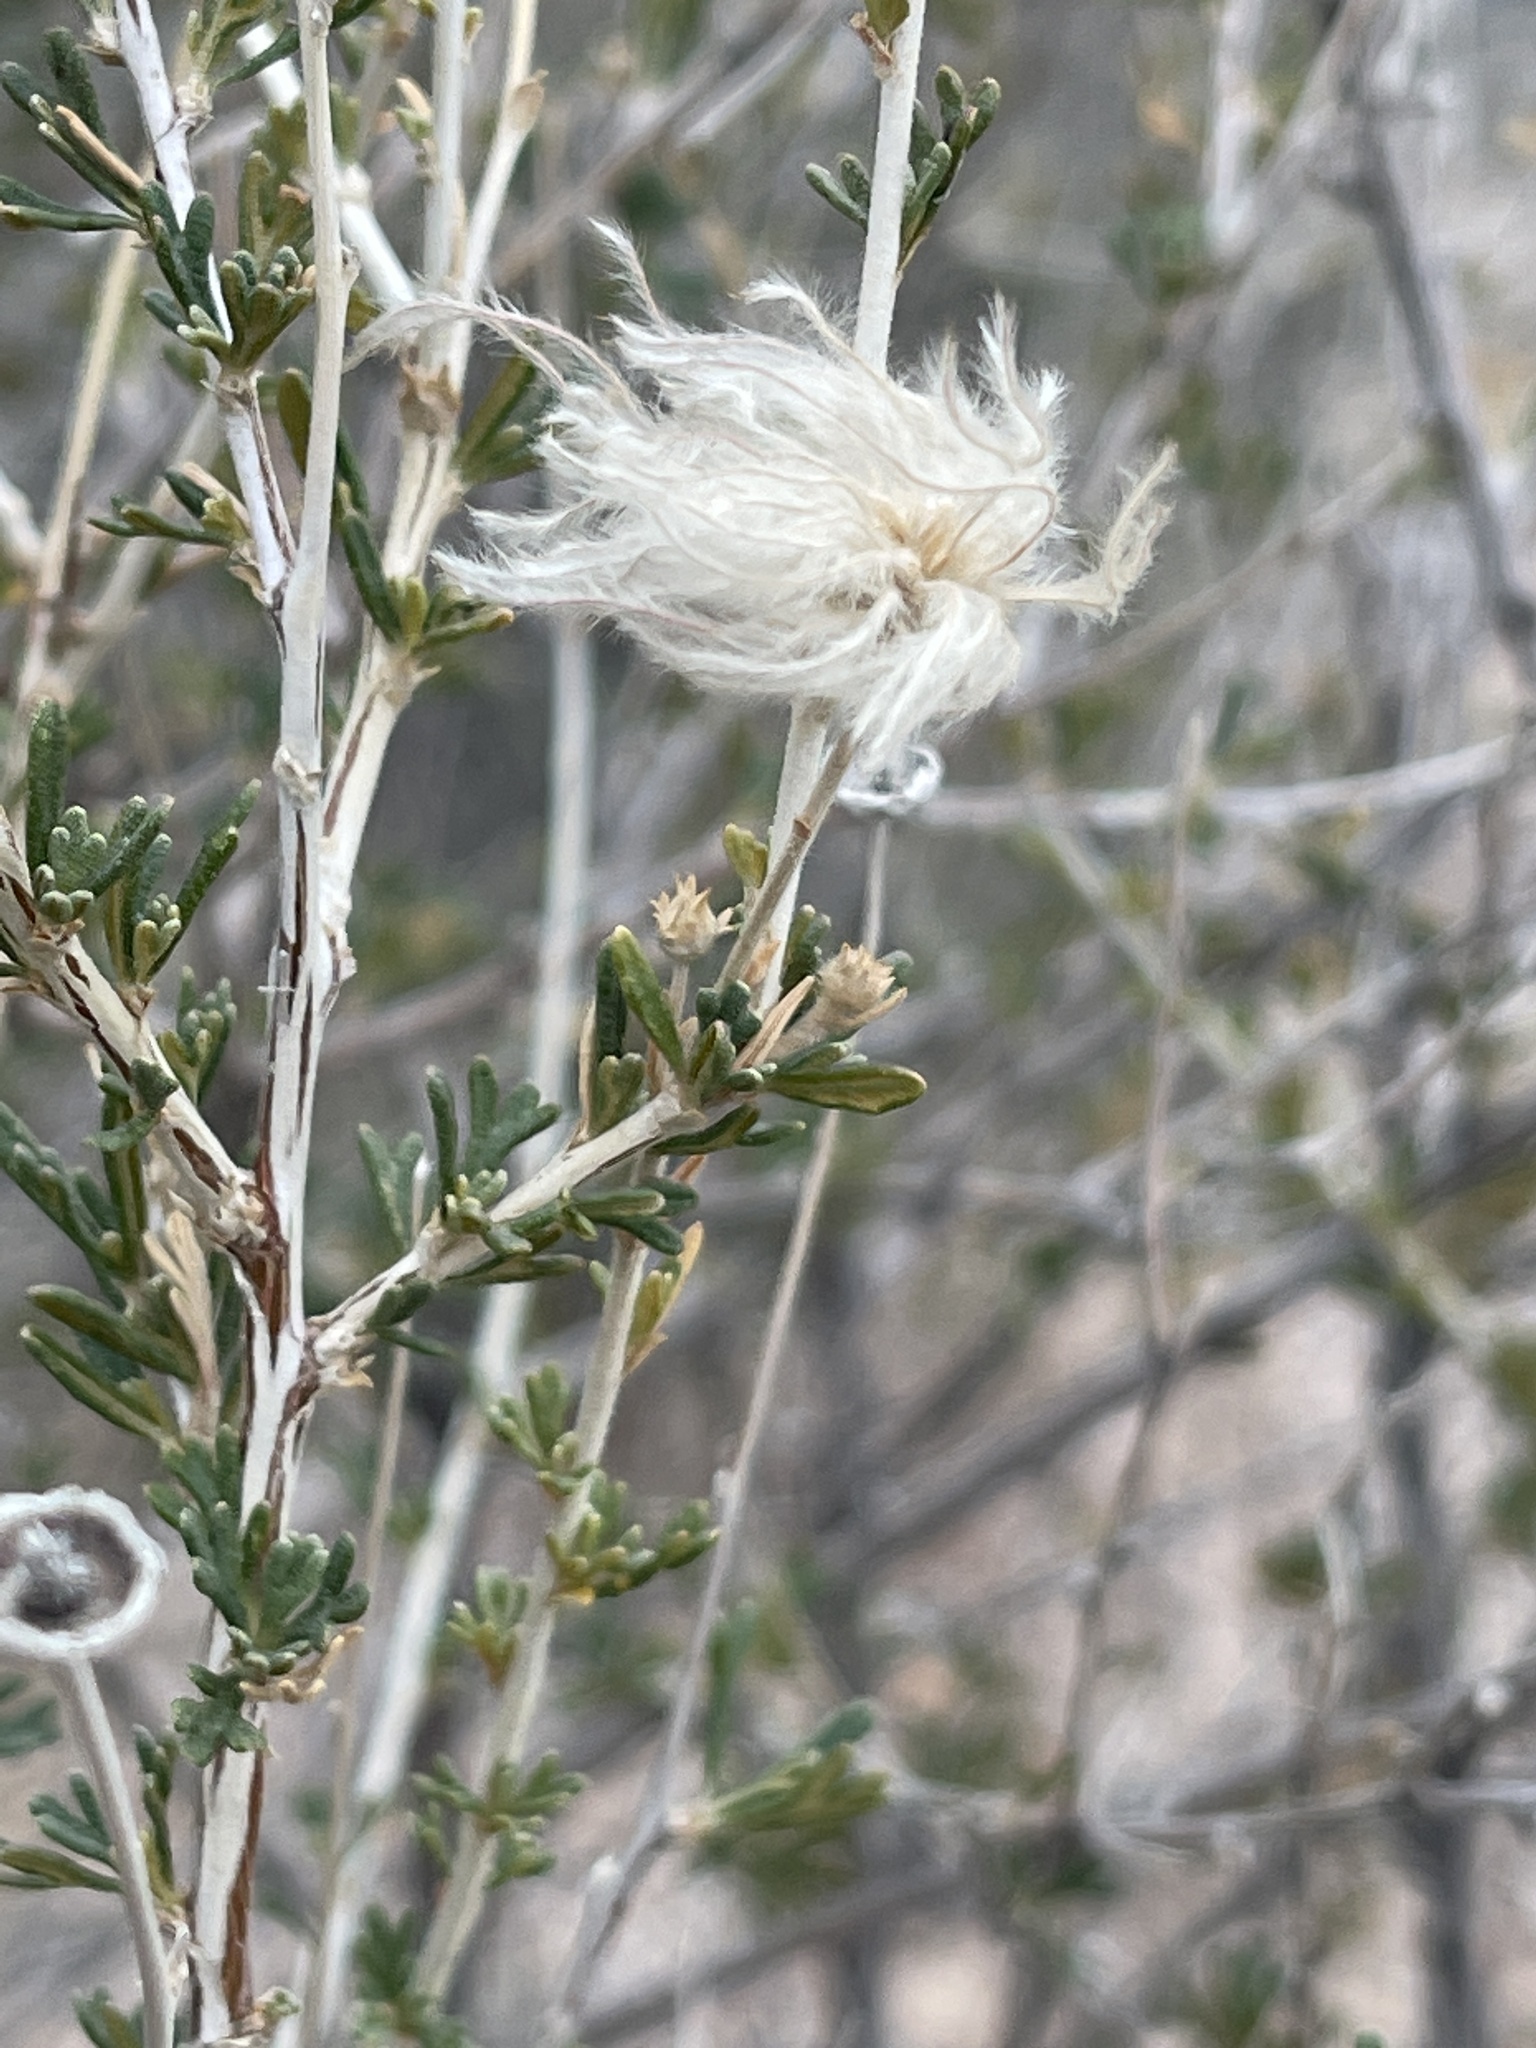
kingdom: Plantae
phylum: Tracheophyta
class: Magnoliopsida
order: Rosales
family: Rosaceae
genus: Fallugia
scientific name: Fallugia paradoxa
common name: Apache-plume
